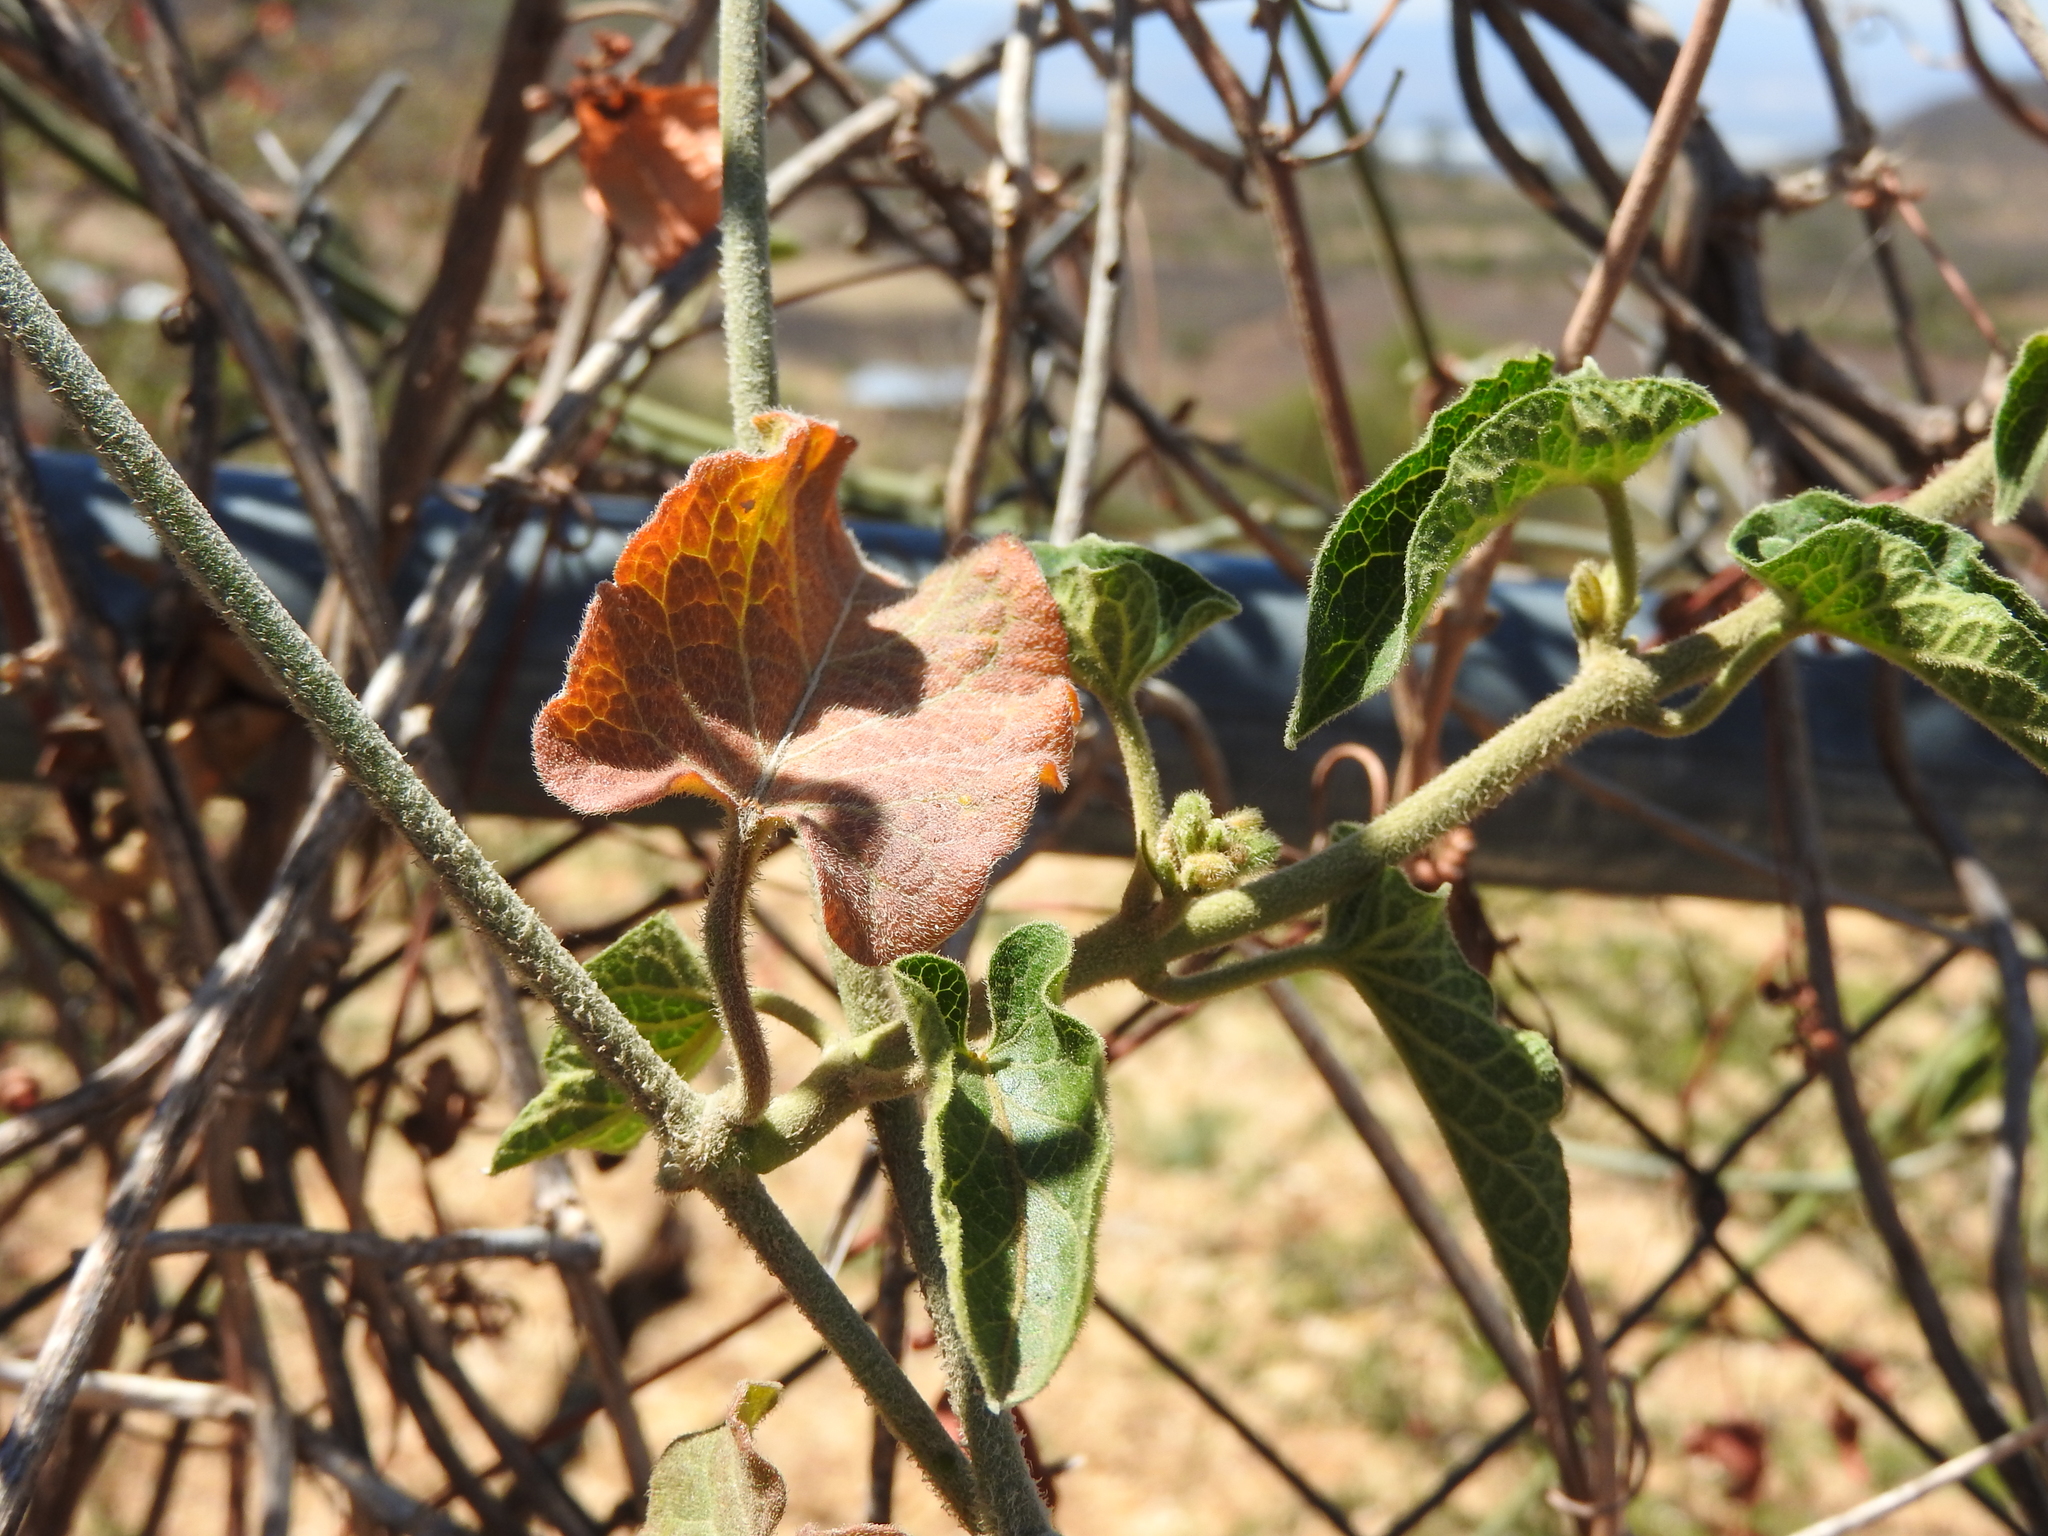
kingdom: Plantae
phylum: Tracheophyta
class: Magnoliopsida
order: Gentianales
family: Apocynaceae
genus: Gonolobus
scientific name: Gonolobus grandiflorus
